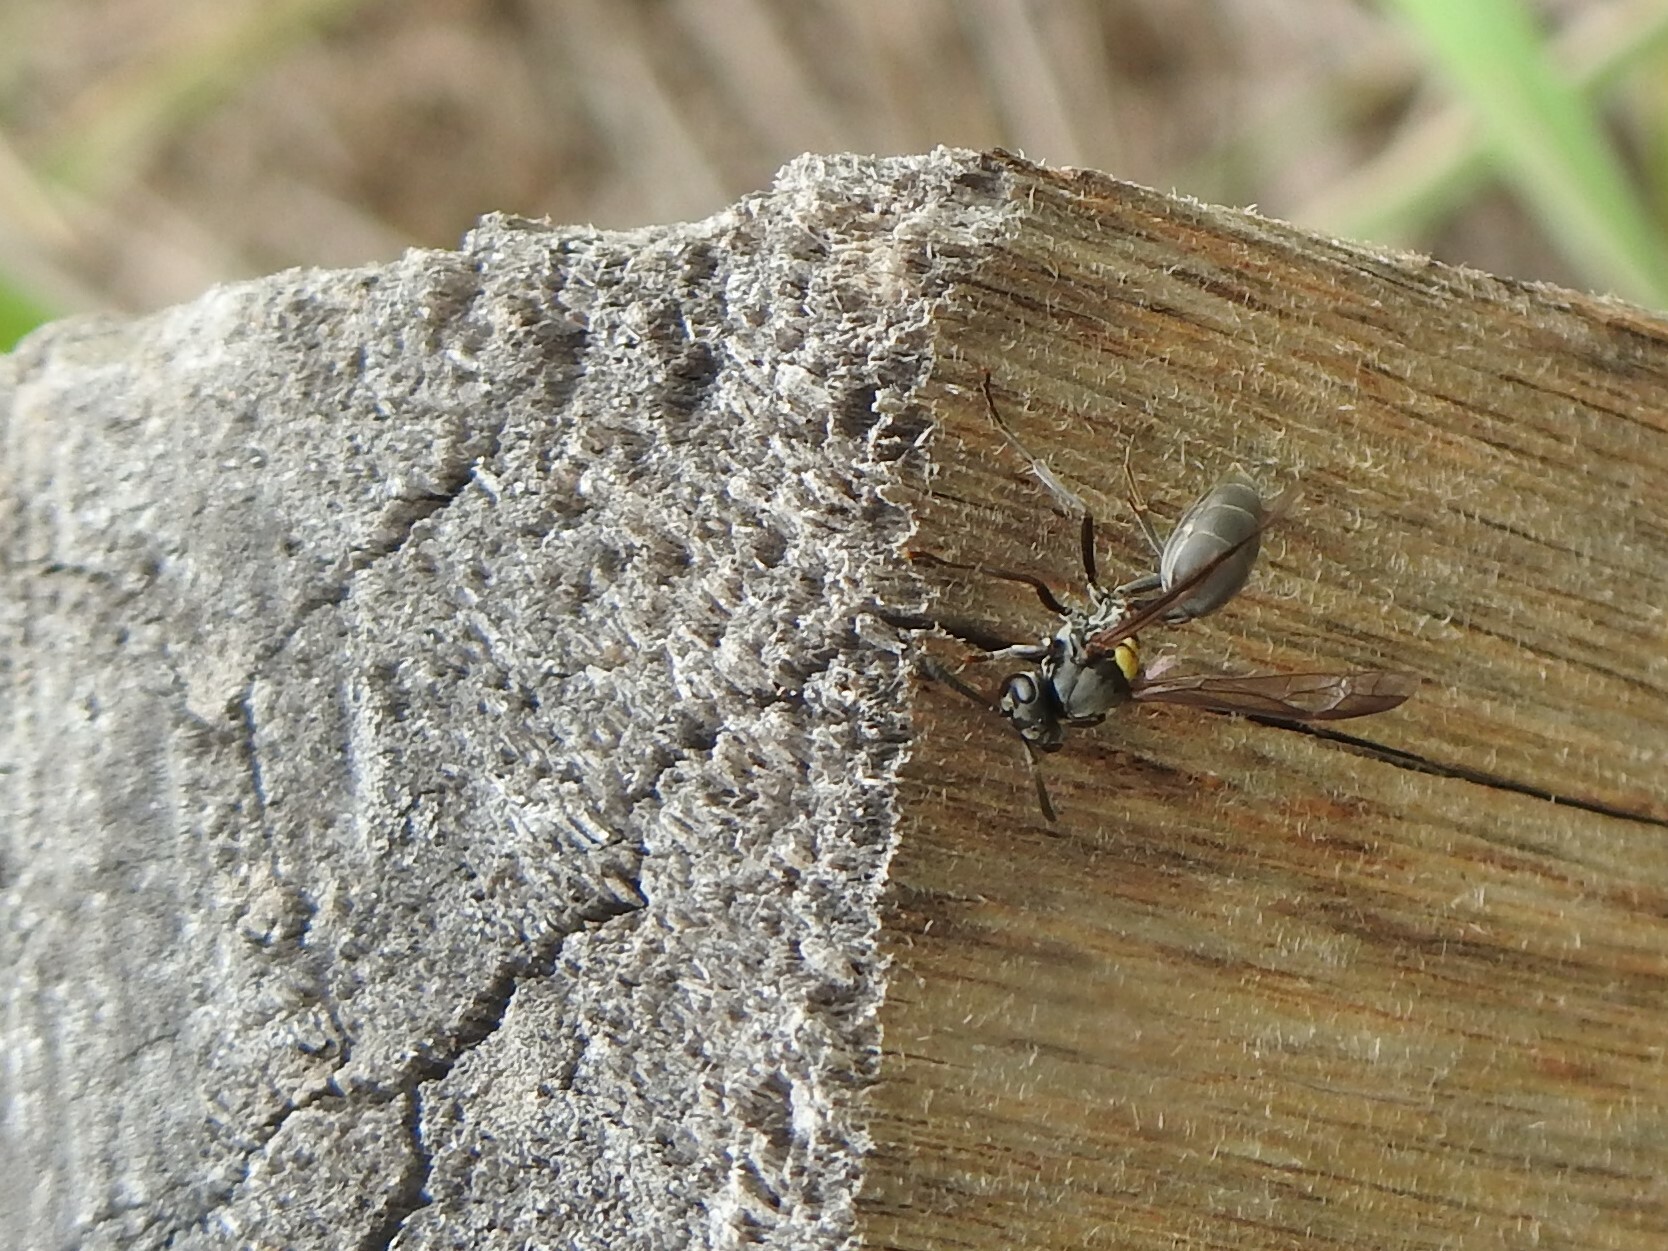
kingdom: Animalia
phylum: Arthropoda
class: Insecta
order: Hymenoptera
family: Eumenidae
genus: Polybia
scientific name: Polybia scutellaris
